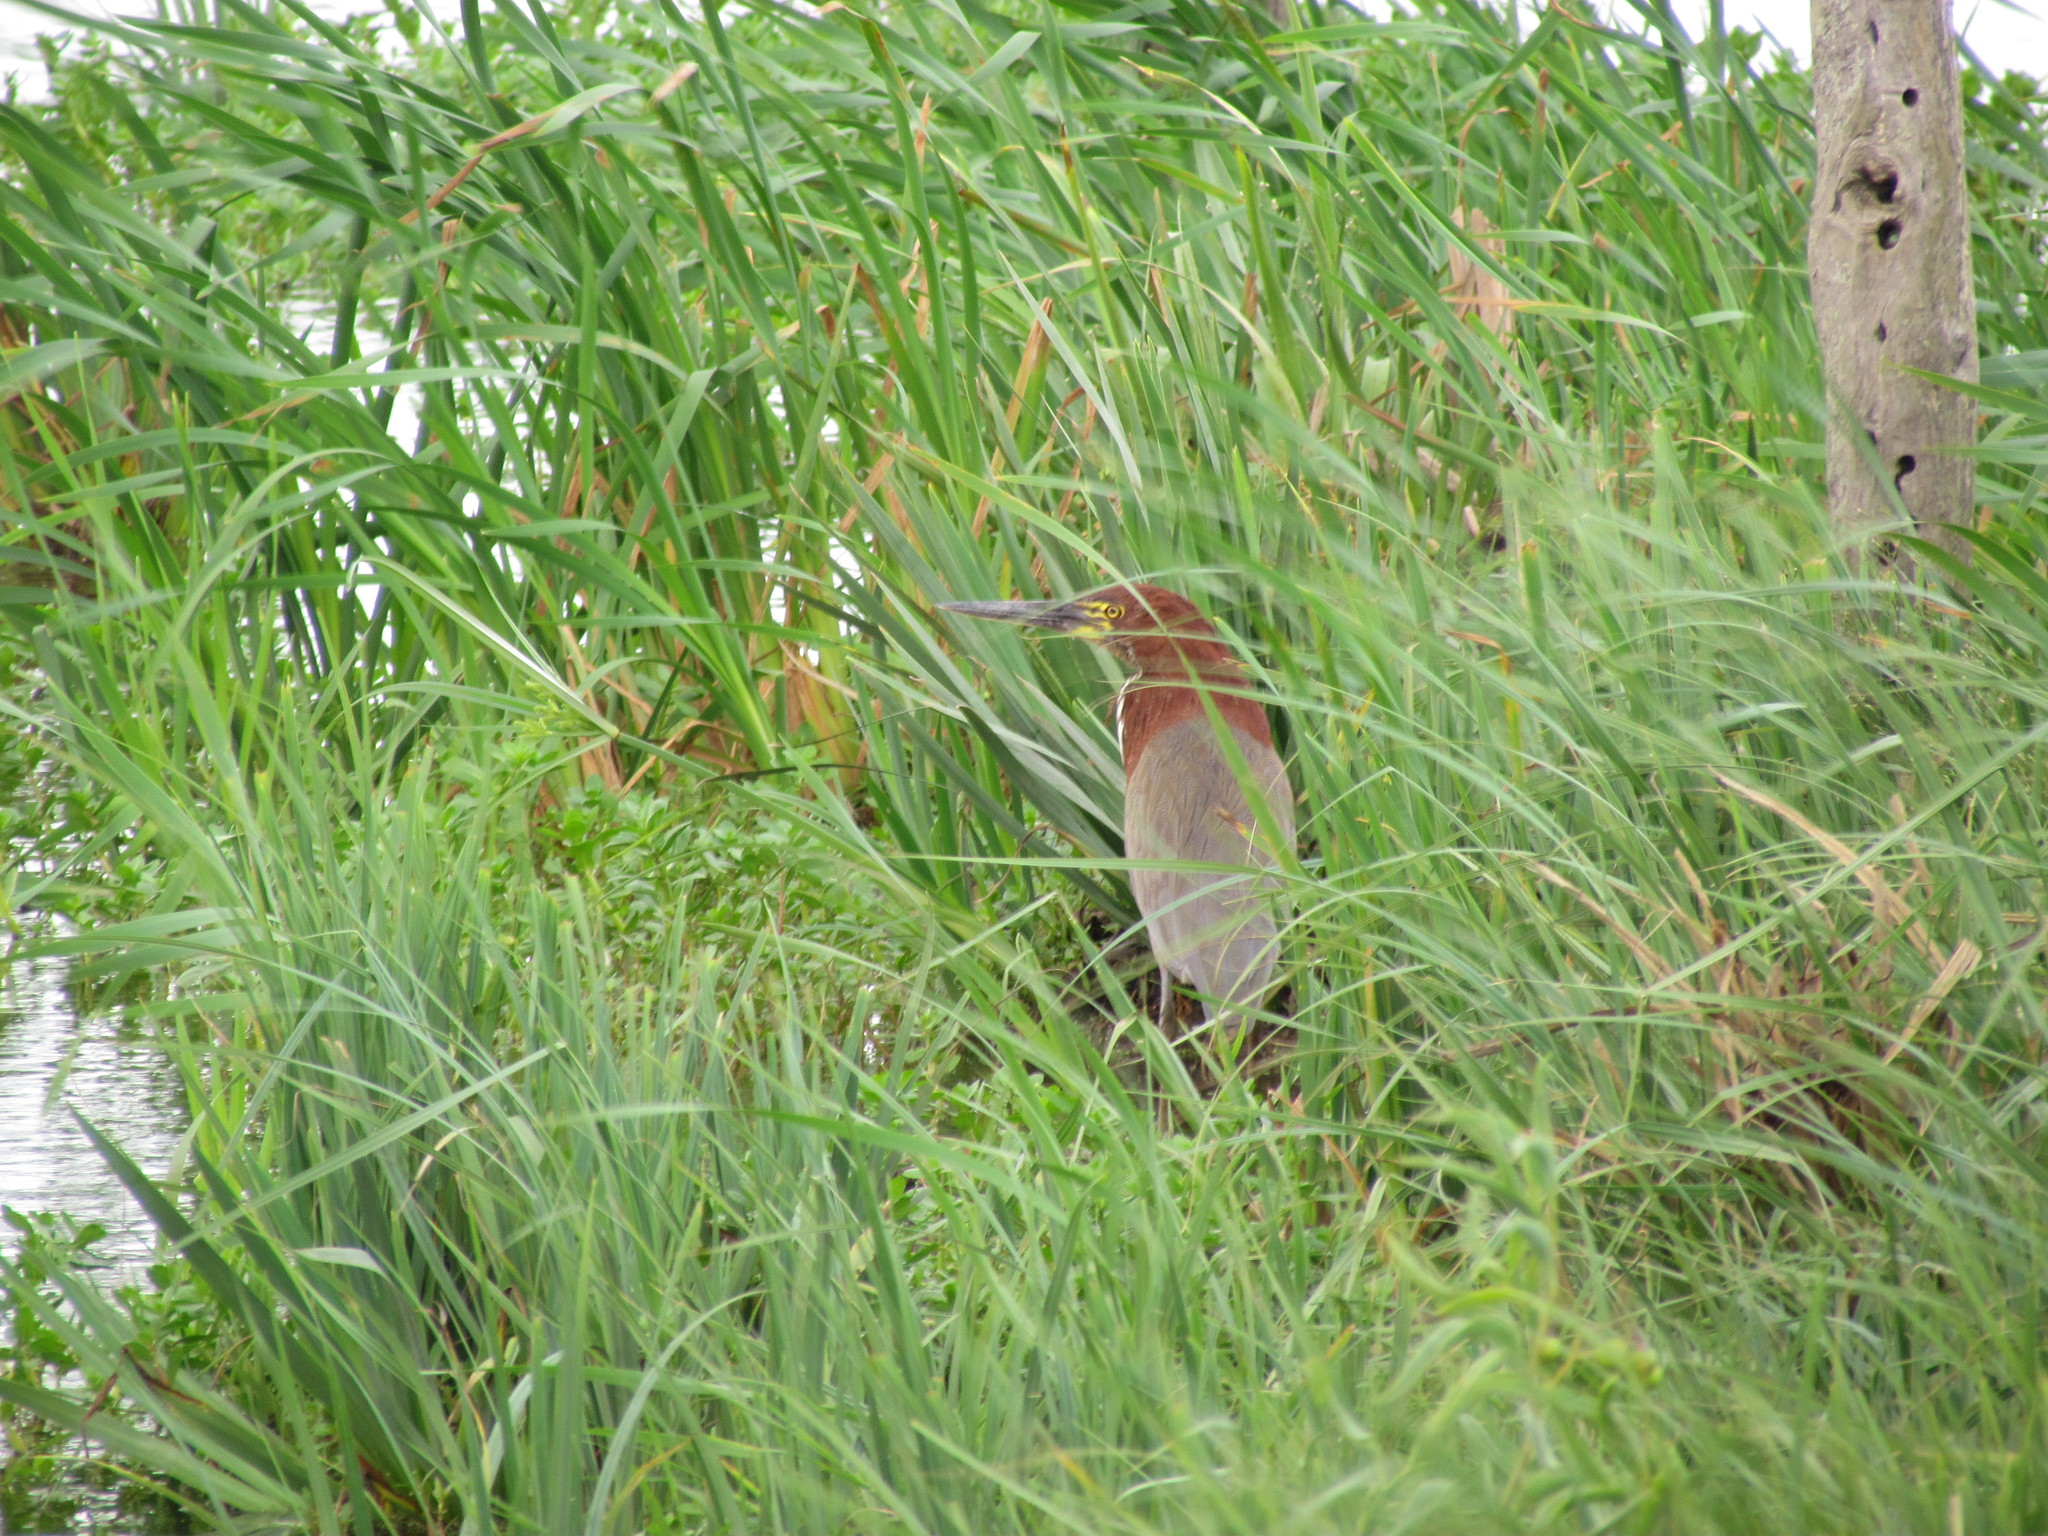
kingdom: Animalia
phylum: Chordata
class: Aves
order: Pelecaniformes
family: Ardeidae
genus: Tigrisoma
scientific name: Tigrisoma lineatum
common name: Rufescent tiger-heron
